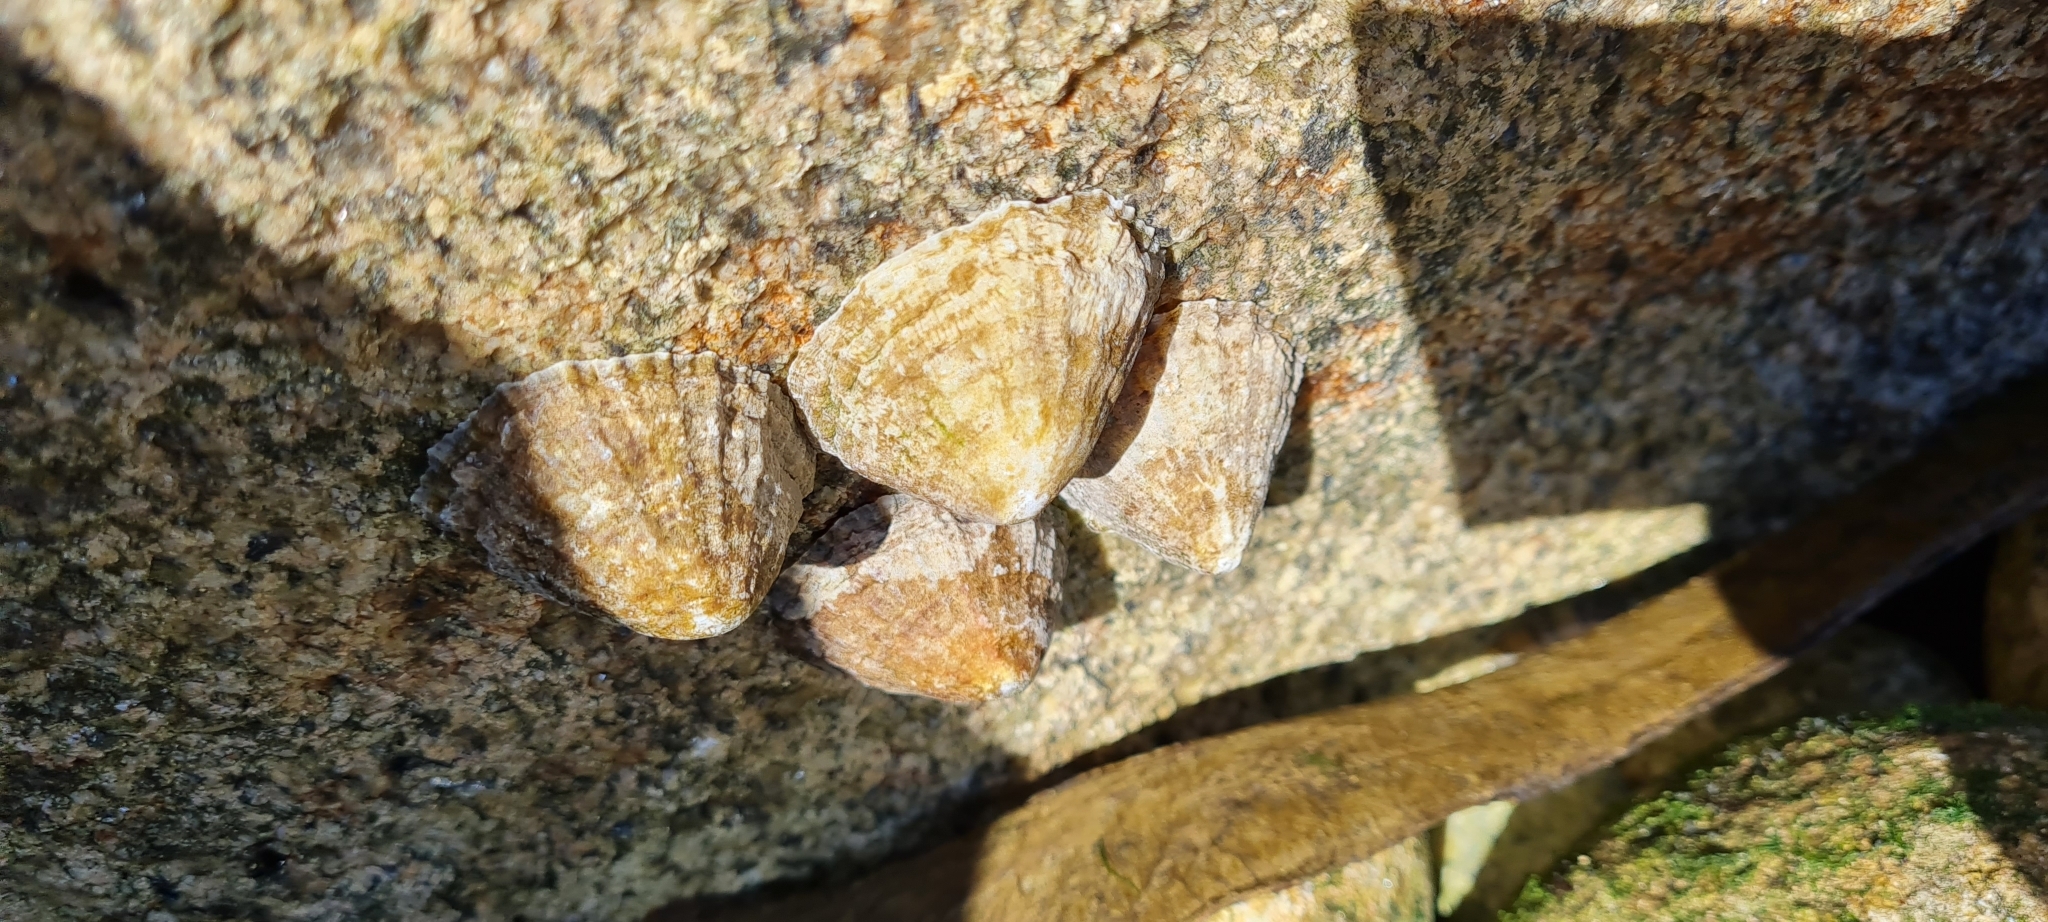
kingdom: Animalia
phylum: Mollusca
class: Gastropoda
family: Patellidae
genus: Patella
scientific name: Patella vulgata
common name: Common limpet
